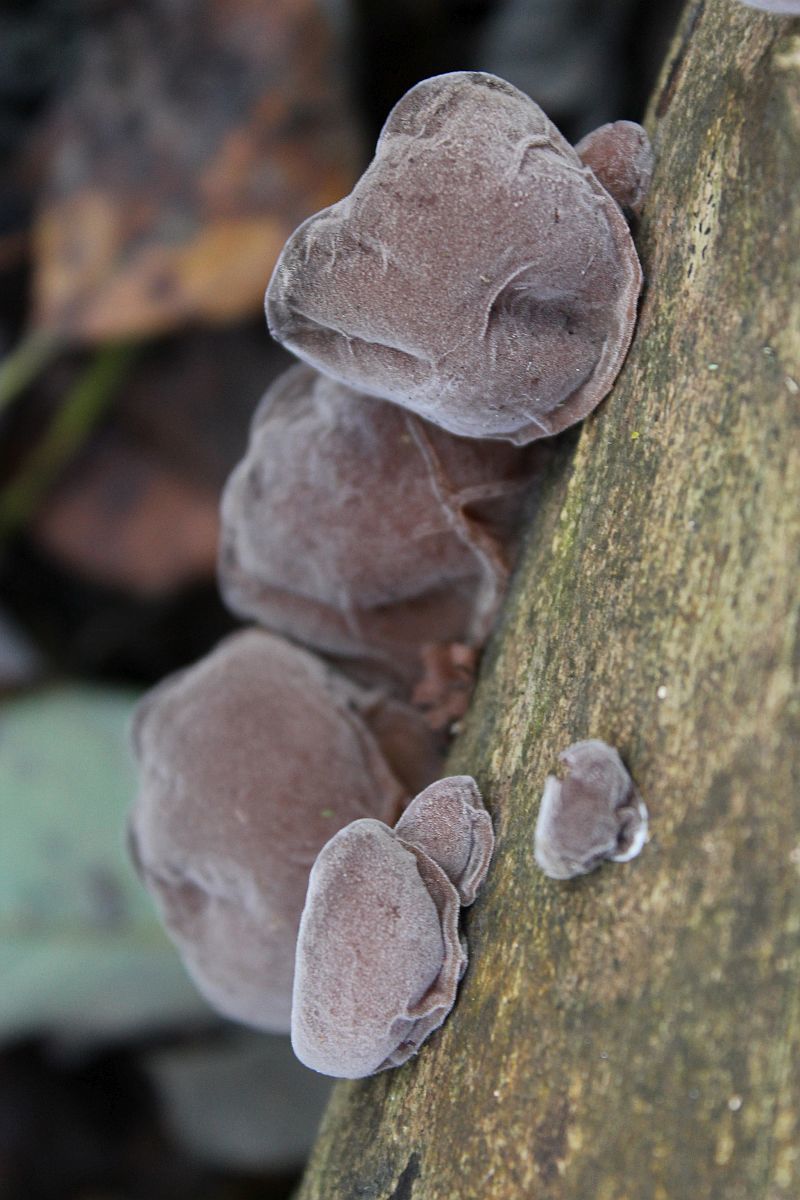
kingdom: Fungi
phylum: Basidiomycota
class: Agaricomycetes
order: Auriculariales
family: Auriculariaceae
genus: Auricularia
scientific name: Auricularia auricula-judae
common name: Jelly ear
